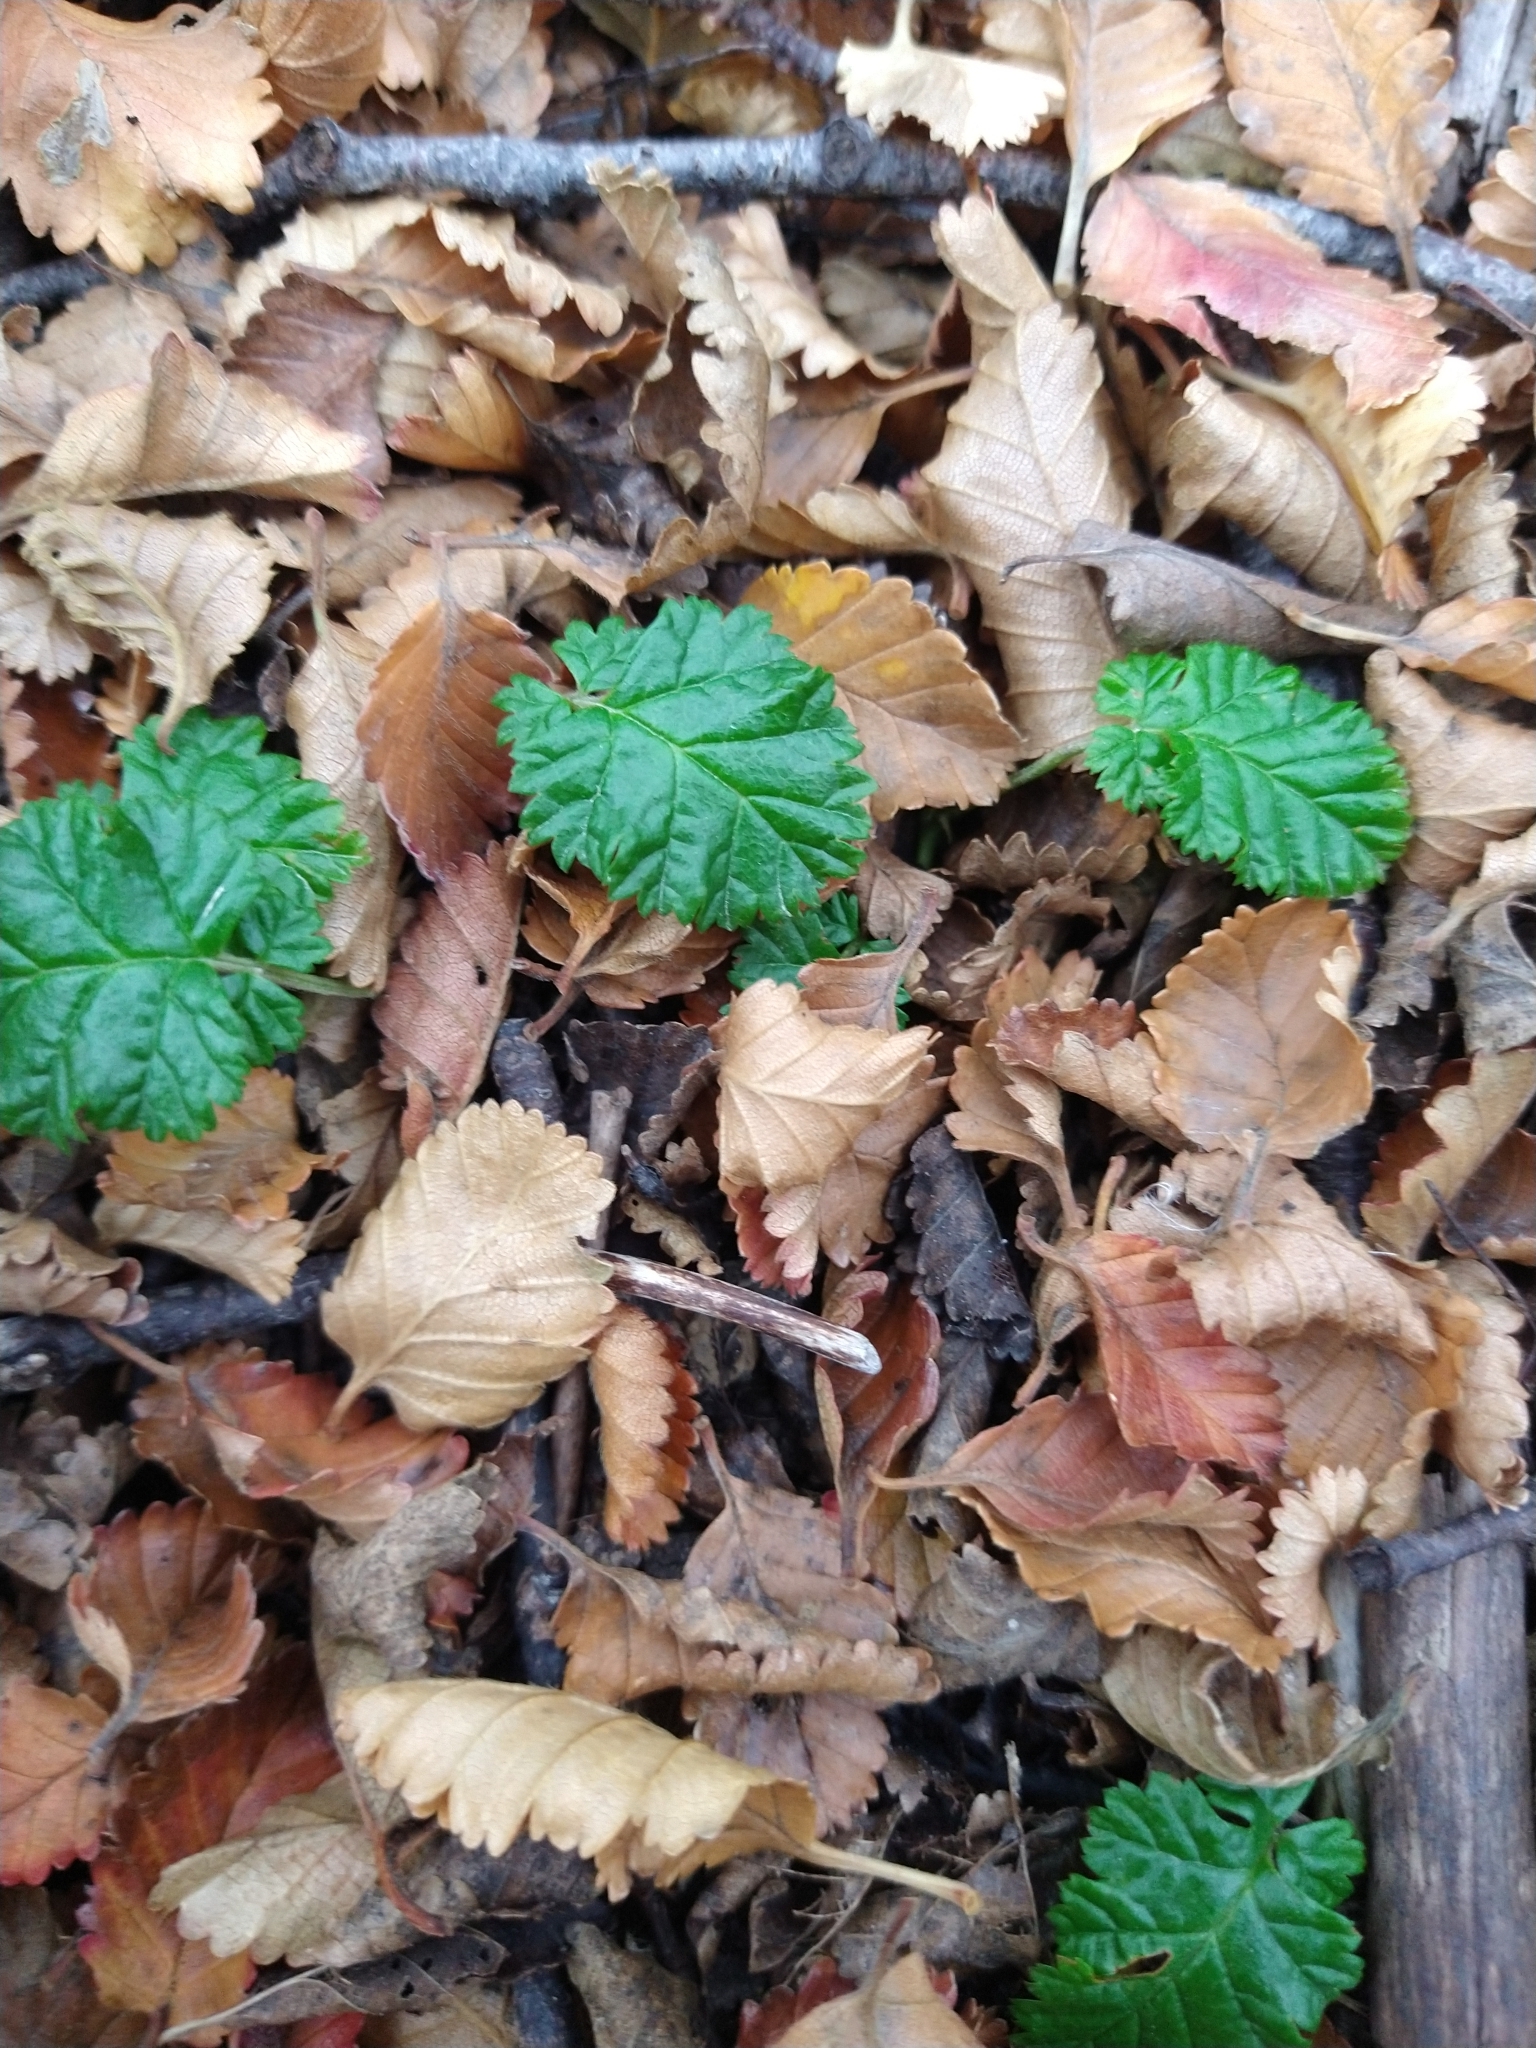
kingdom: Plantae
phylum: Tracheophyta
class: Magnoliopsida
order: Rosales
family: Rosaceae
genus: Rubus
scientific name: Rubus geoides
